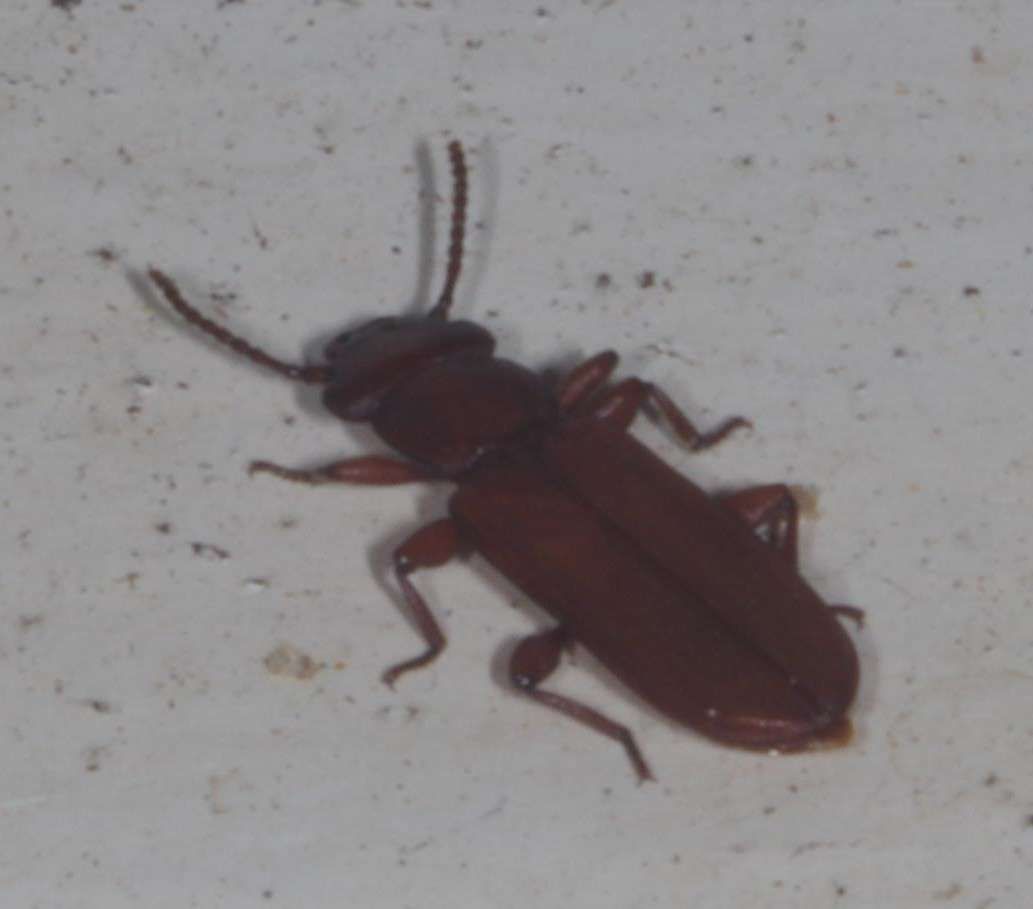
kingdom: Animalia
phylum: Arthropoda
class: Insecta
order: Coleoptera
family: Cucujidae
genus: Platisus
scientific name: Platisus
